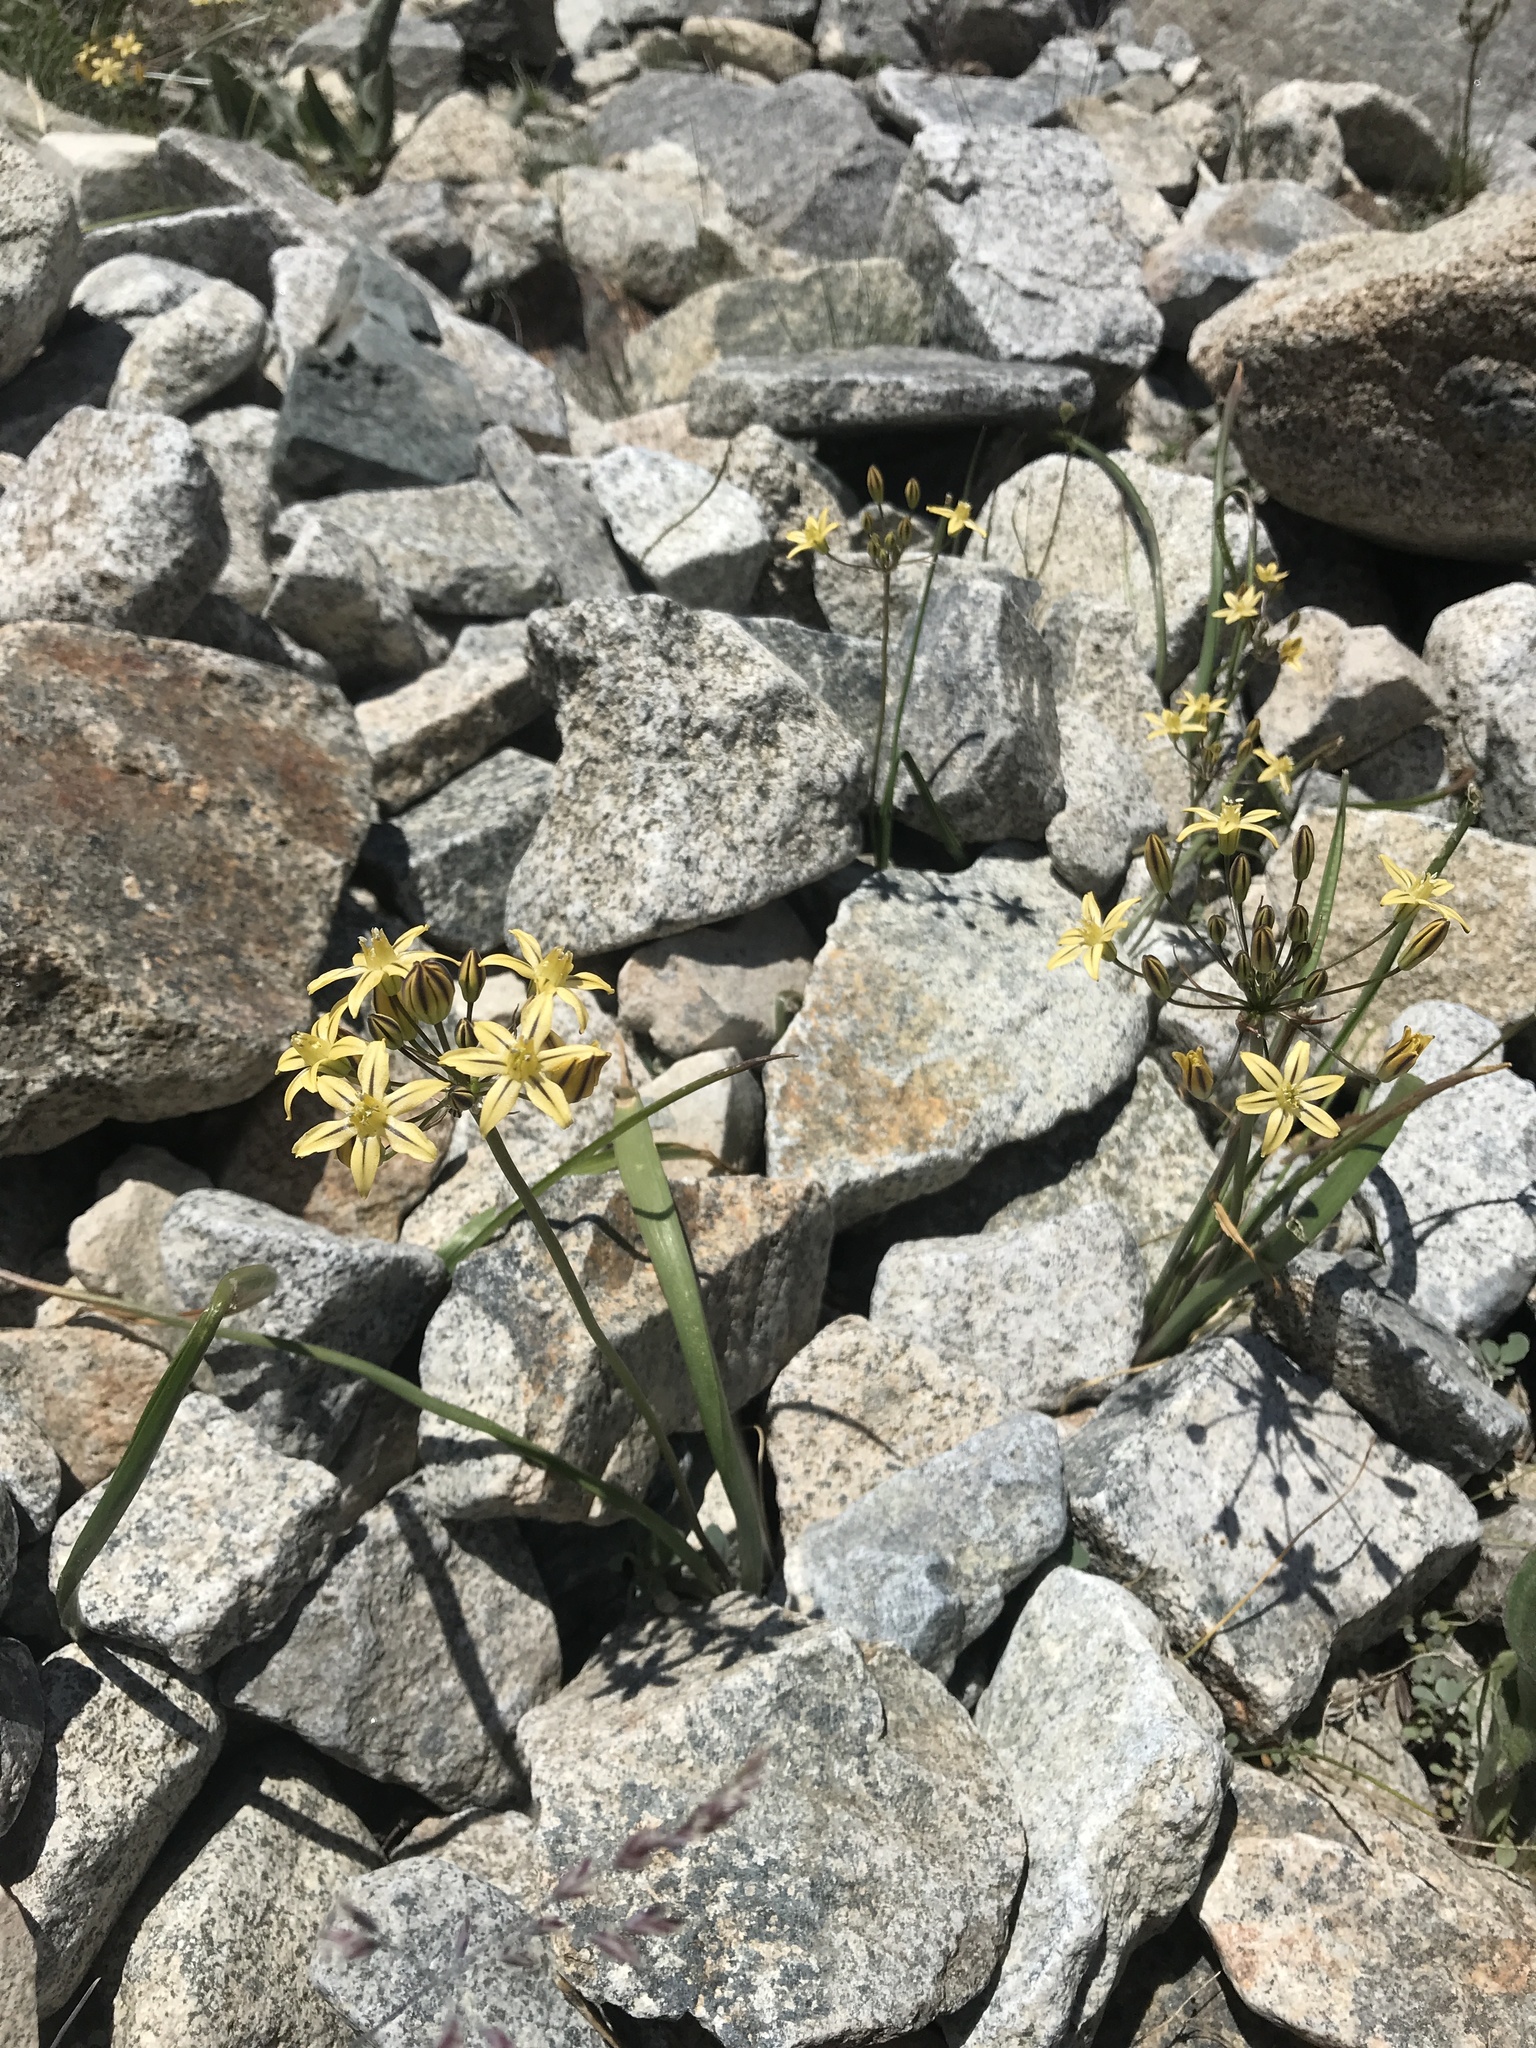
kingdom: Plantae
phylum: Tracheophyta
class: Liliopsida
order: Asparagales
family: Asparagaceae
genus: Triteleia
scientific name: Triteleia ixioides
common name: Yellow-brodiaea
